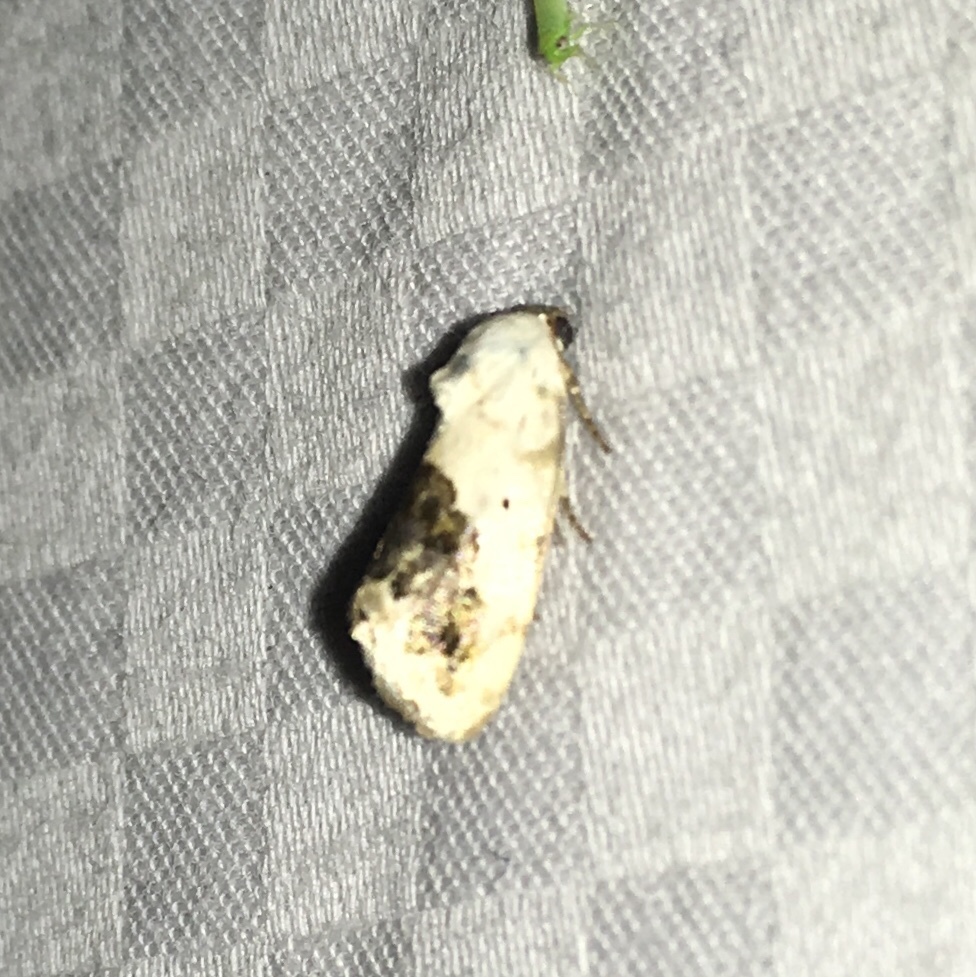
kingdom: Animalia
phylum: Arthropoda
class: Insecta
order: Lepidoptera
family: Noctuidae
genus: Acontia
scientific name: Acontia erastrioides
